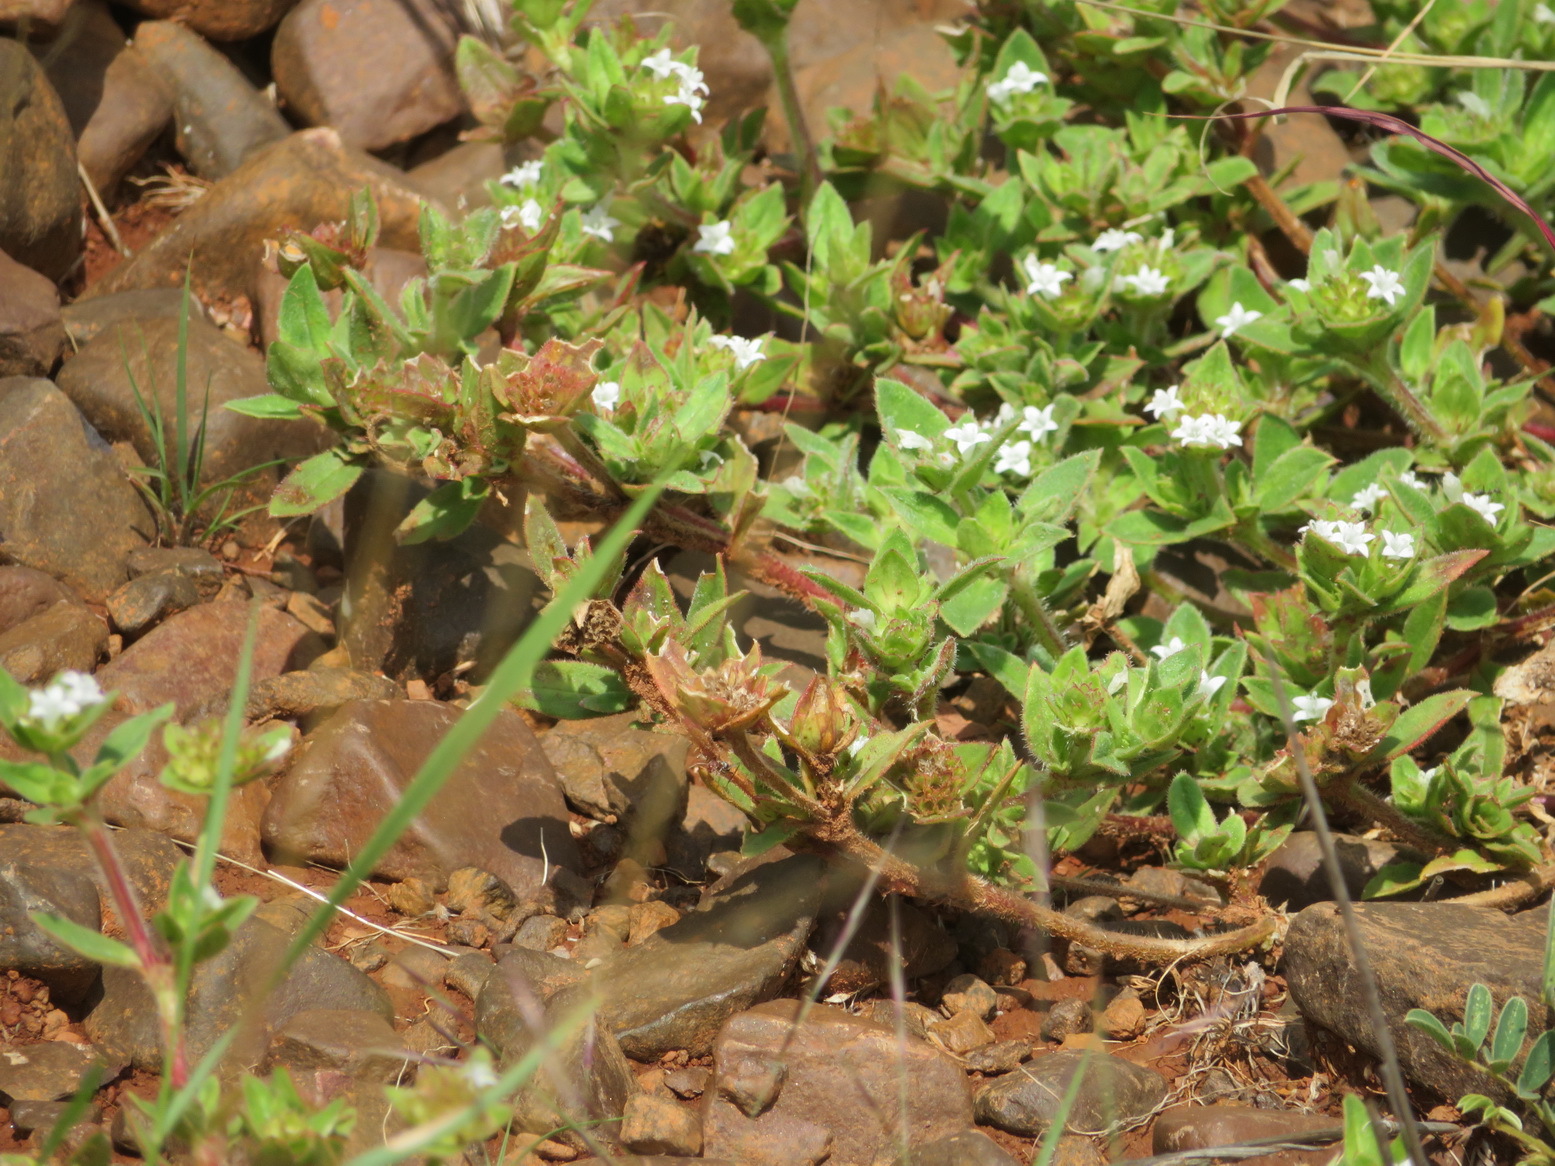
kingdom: Plantae
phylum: Tracheophyta
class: Magnoliopsida
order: Gentianales
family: Rubiaceae
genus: Richardia
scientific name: Richardia brasiliensis
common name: Tropical mexican clover
